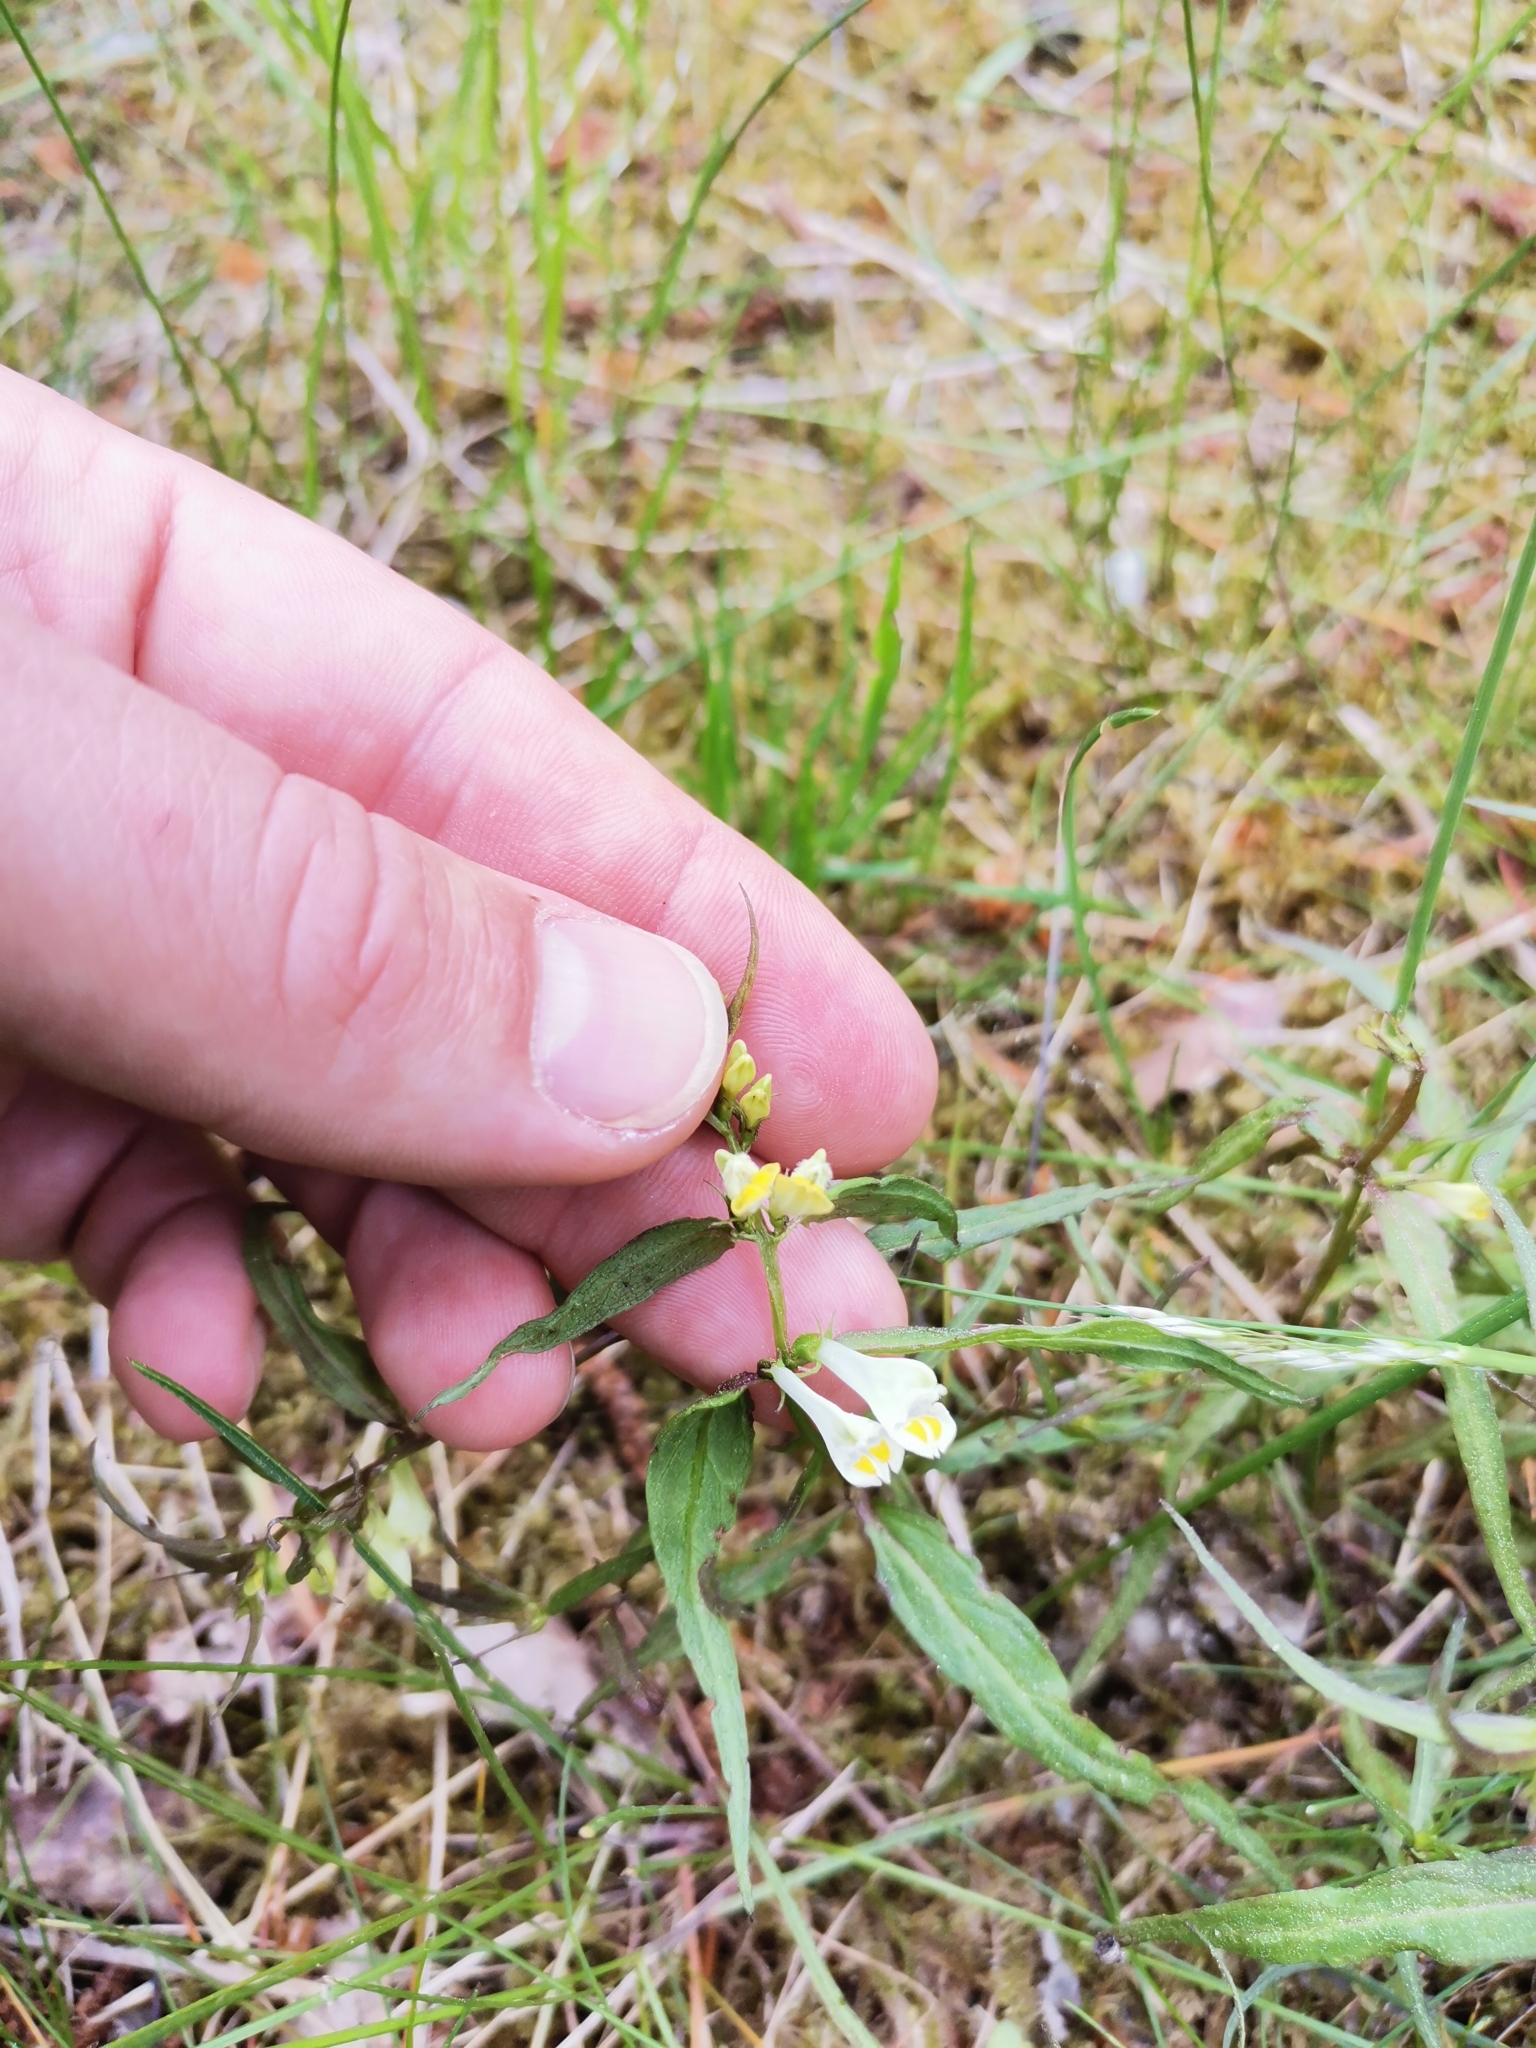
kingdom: Plantae
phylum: Tracheophyta
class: Magnoliopsida
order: Lamiales
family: Orobanchaceae
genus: Melampyrum
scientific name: Melampyrum pratense
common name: Common cow-wheat
